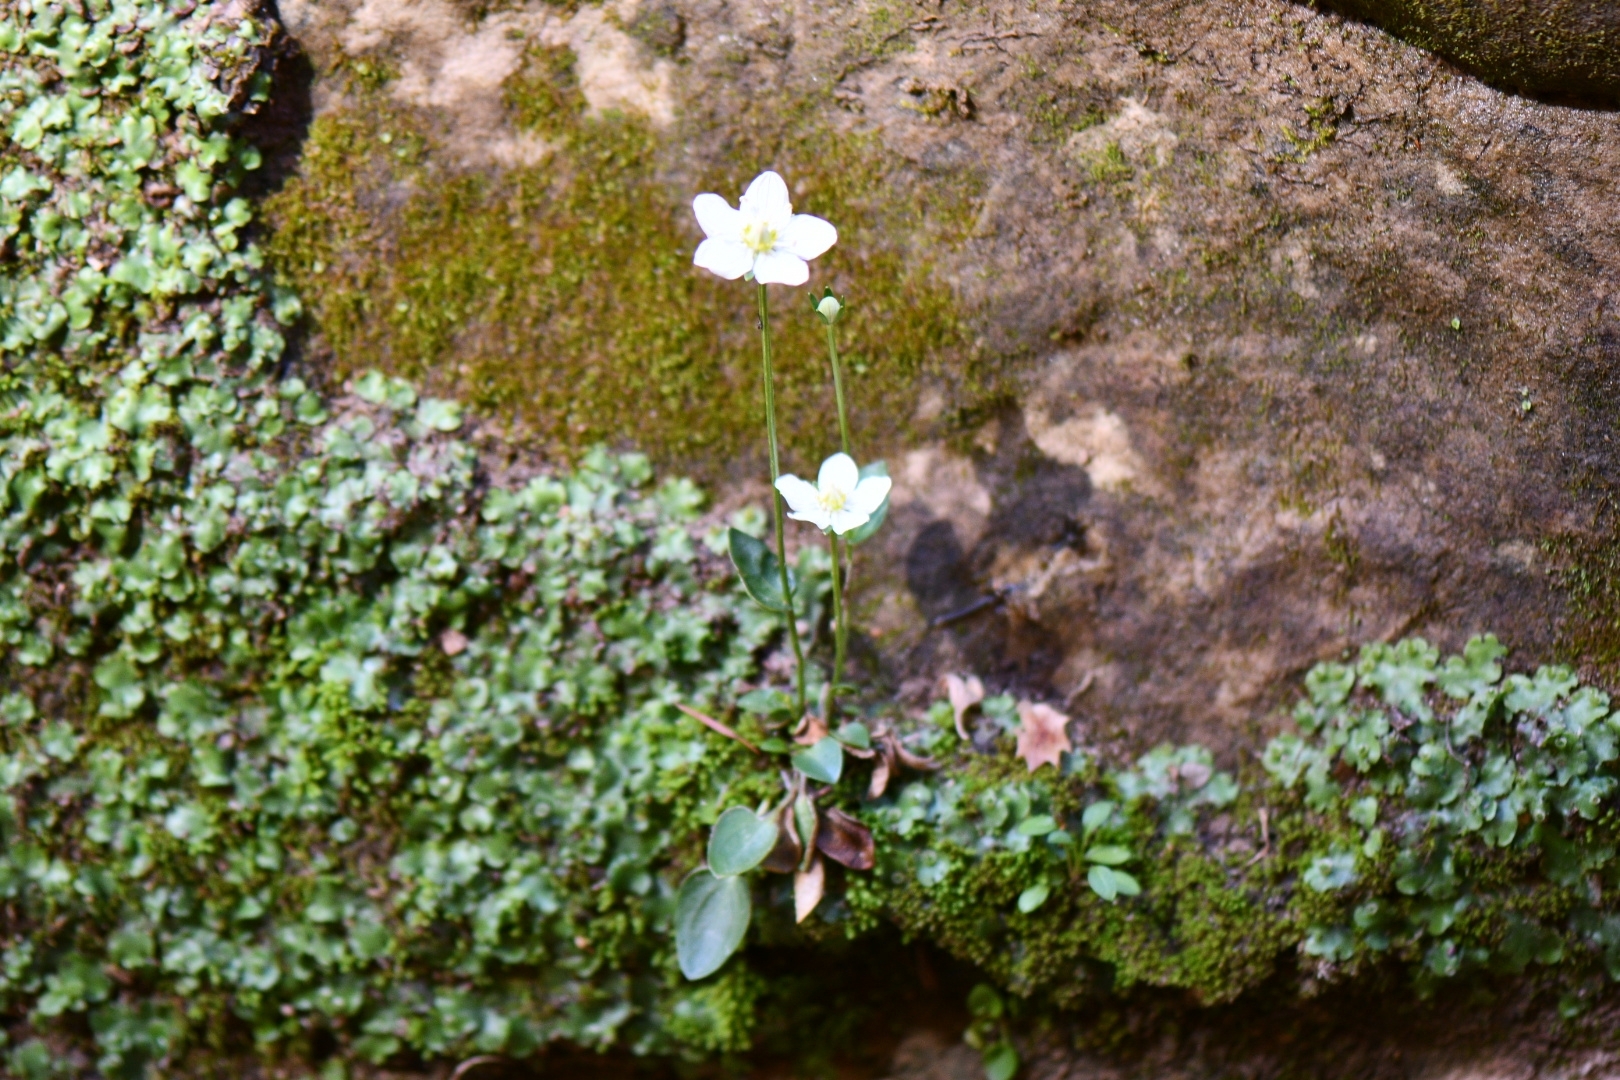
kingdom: Plantae
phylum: Tracheophyta
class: Magnoliopsida
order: Celastrales
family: Parnassiaceae
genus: Parnassia
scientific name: Parnassia palustris
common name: Grass-of-parnassus
